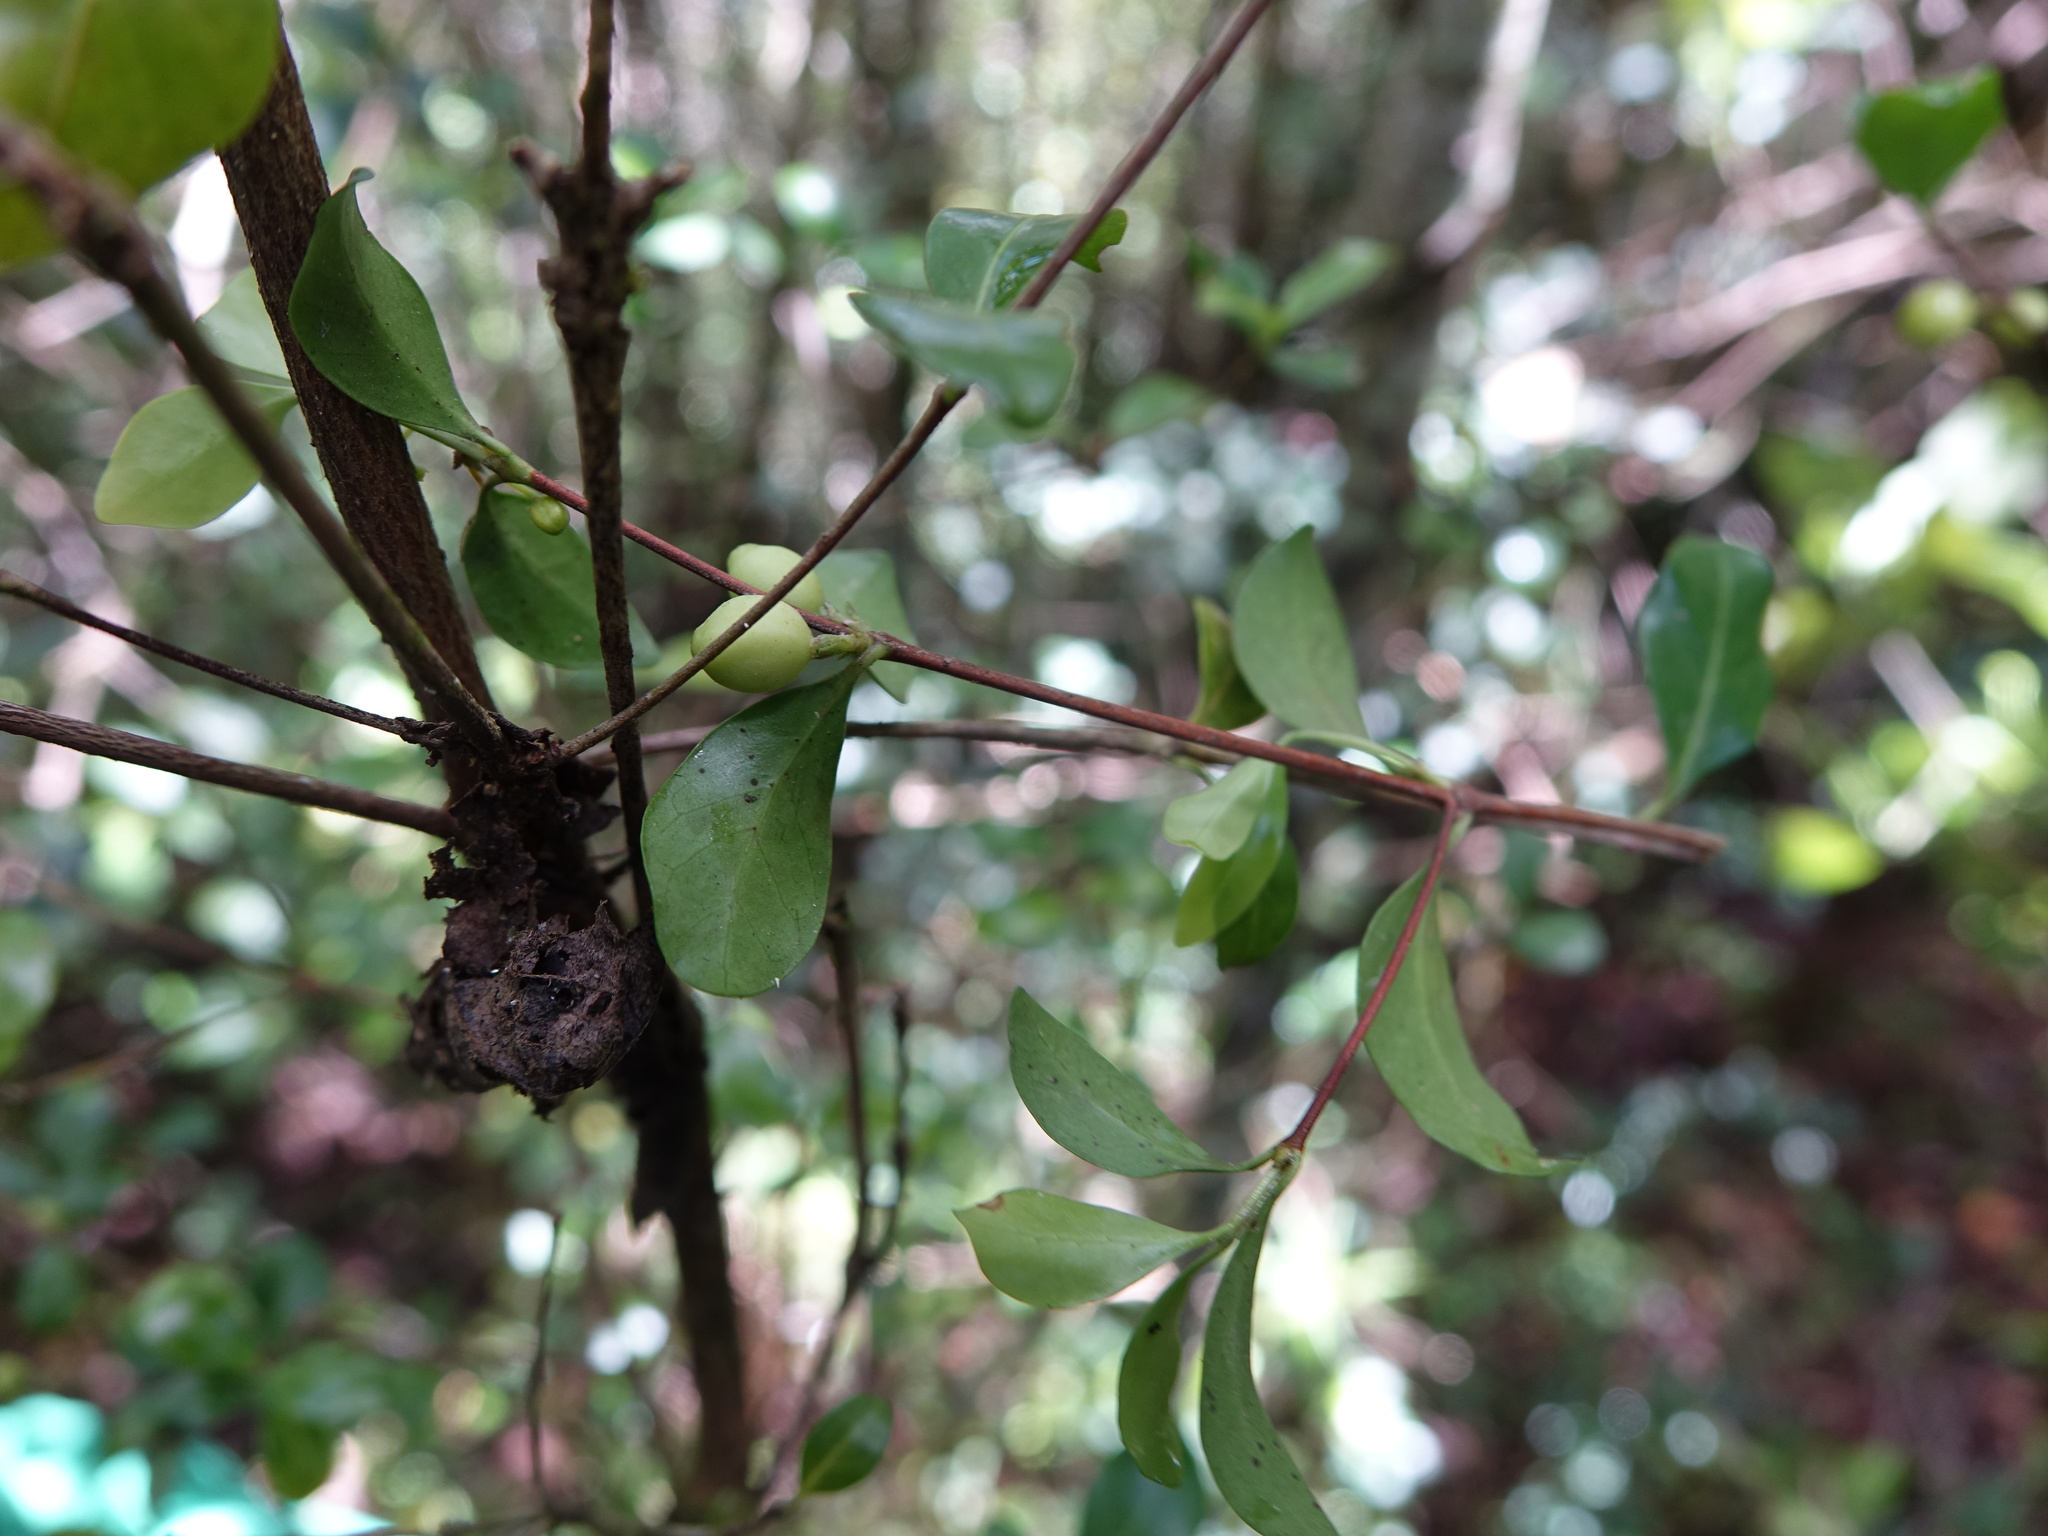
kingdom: Plantae
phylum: Tracheophyta
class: Magnoliopsida
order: Gentianales
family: Rubiaceae
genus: Coffea
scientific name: Coffea buxifolia
